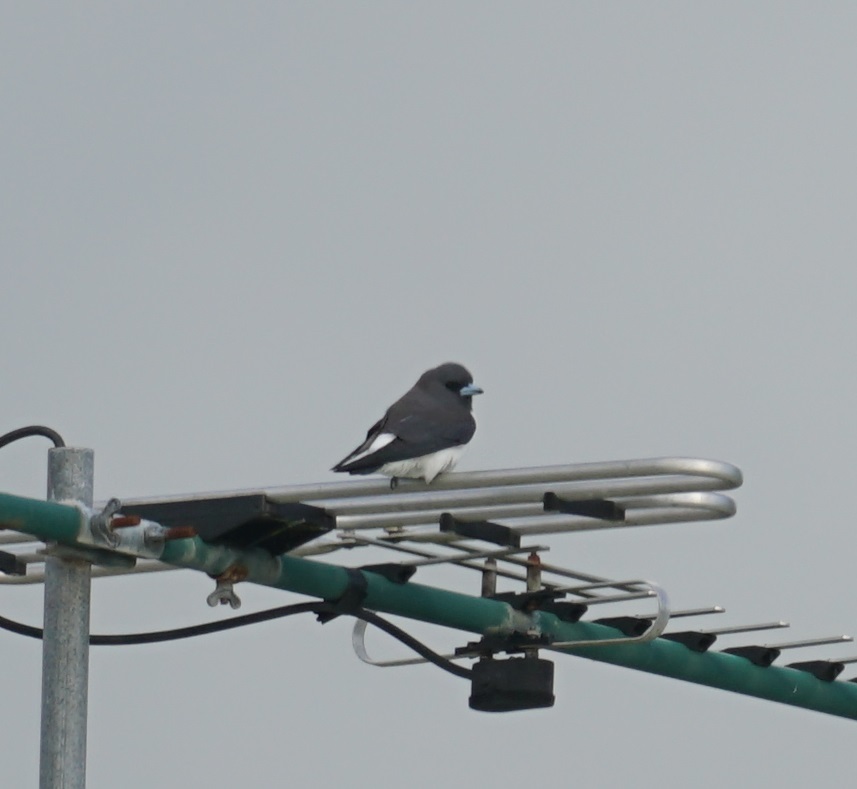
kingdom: Animalia
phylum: Chordata
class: Aves
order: Passeriformes
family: Artamidae
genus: Artamus
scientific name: Artamus leucoryn
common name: White-breasted woodswallow
